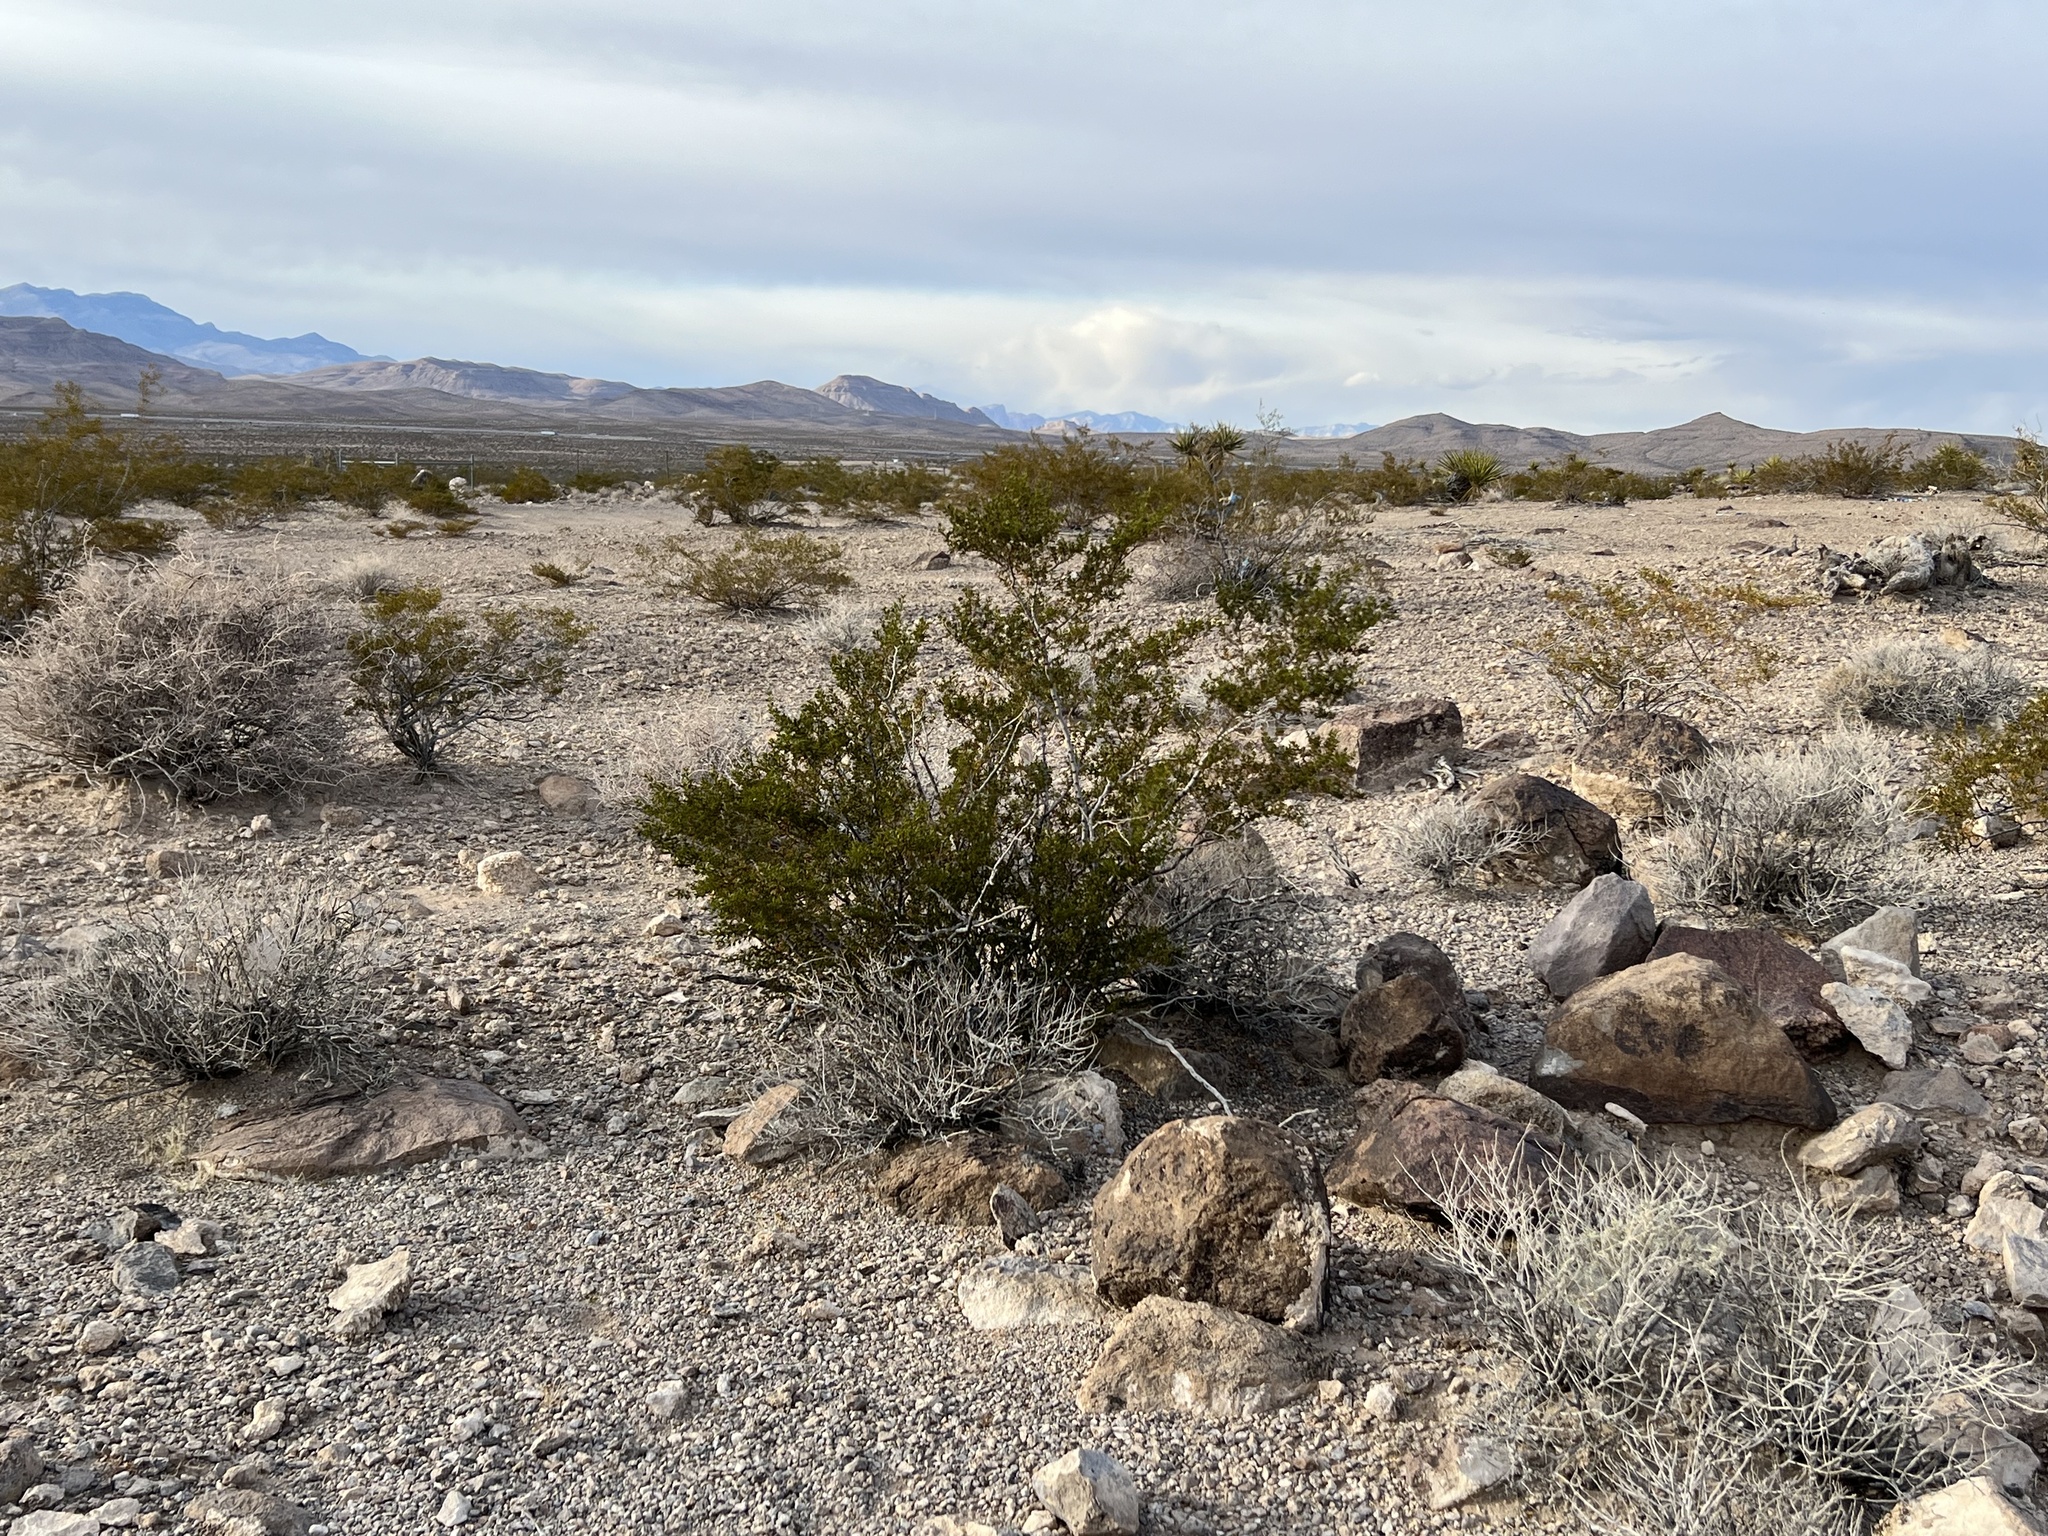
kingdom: Plantae
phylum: Tracheophyta
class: Magnoliopsida
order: Zygophyllales
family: Zygophyllaceae
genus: Larrea
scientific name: Larrea tridentata
